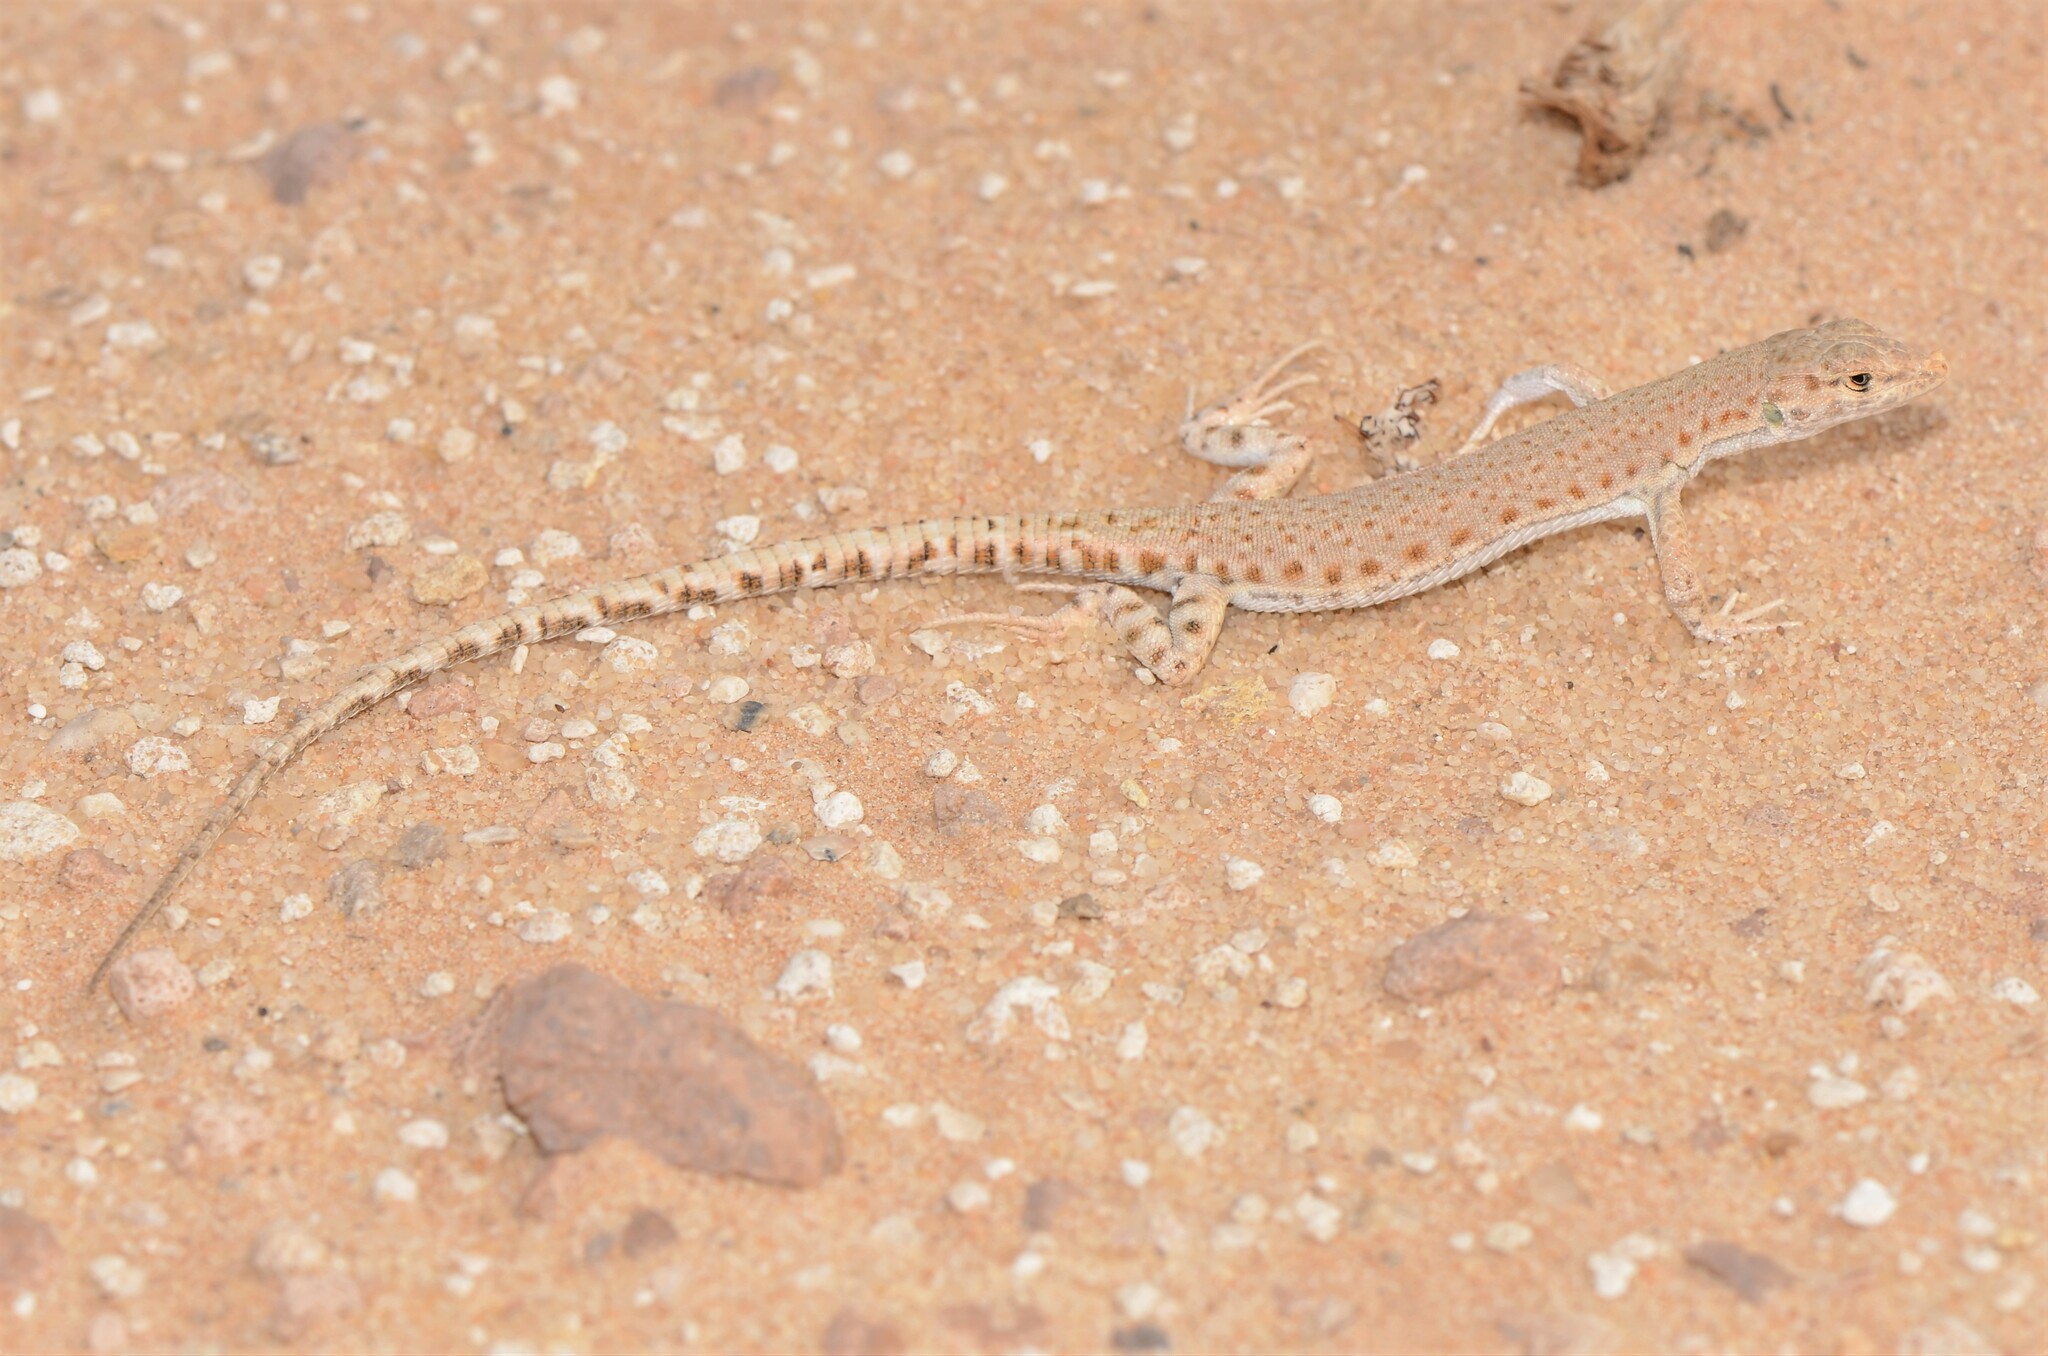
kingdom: Animalia
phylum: Chordata
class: Squamata
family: Lacertidae
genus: Mesalina
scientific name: Mesalina brevirostris
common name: Blanford's short-nosed desert lizard
